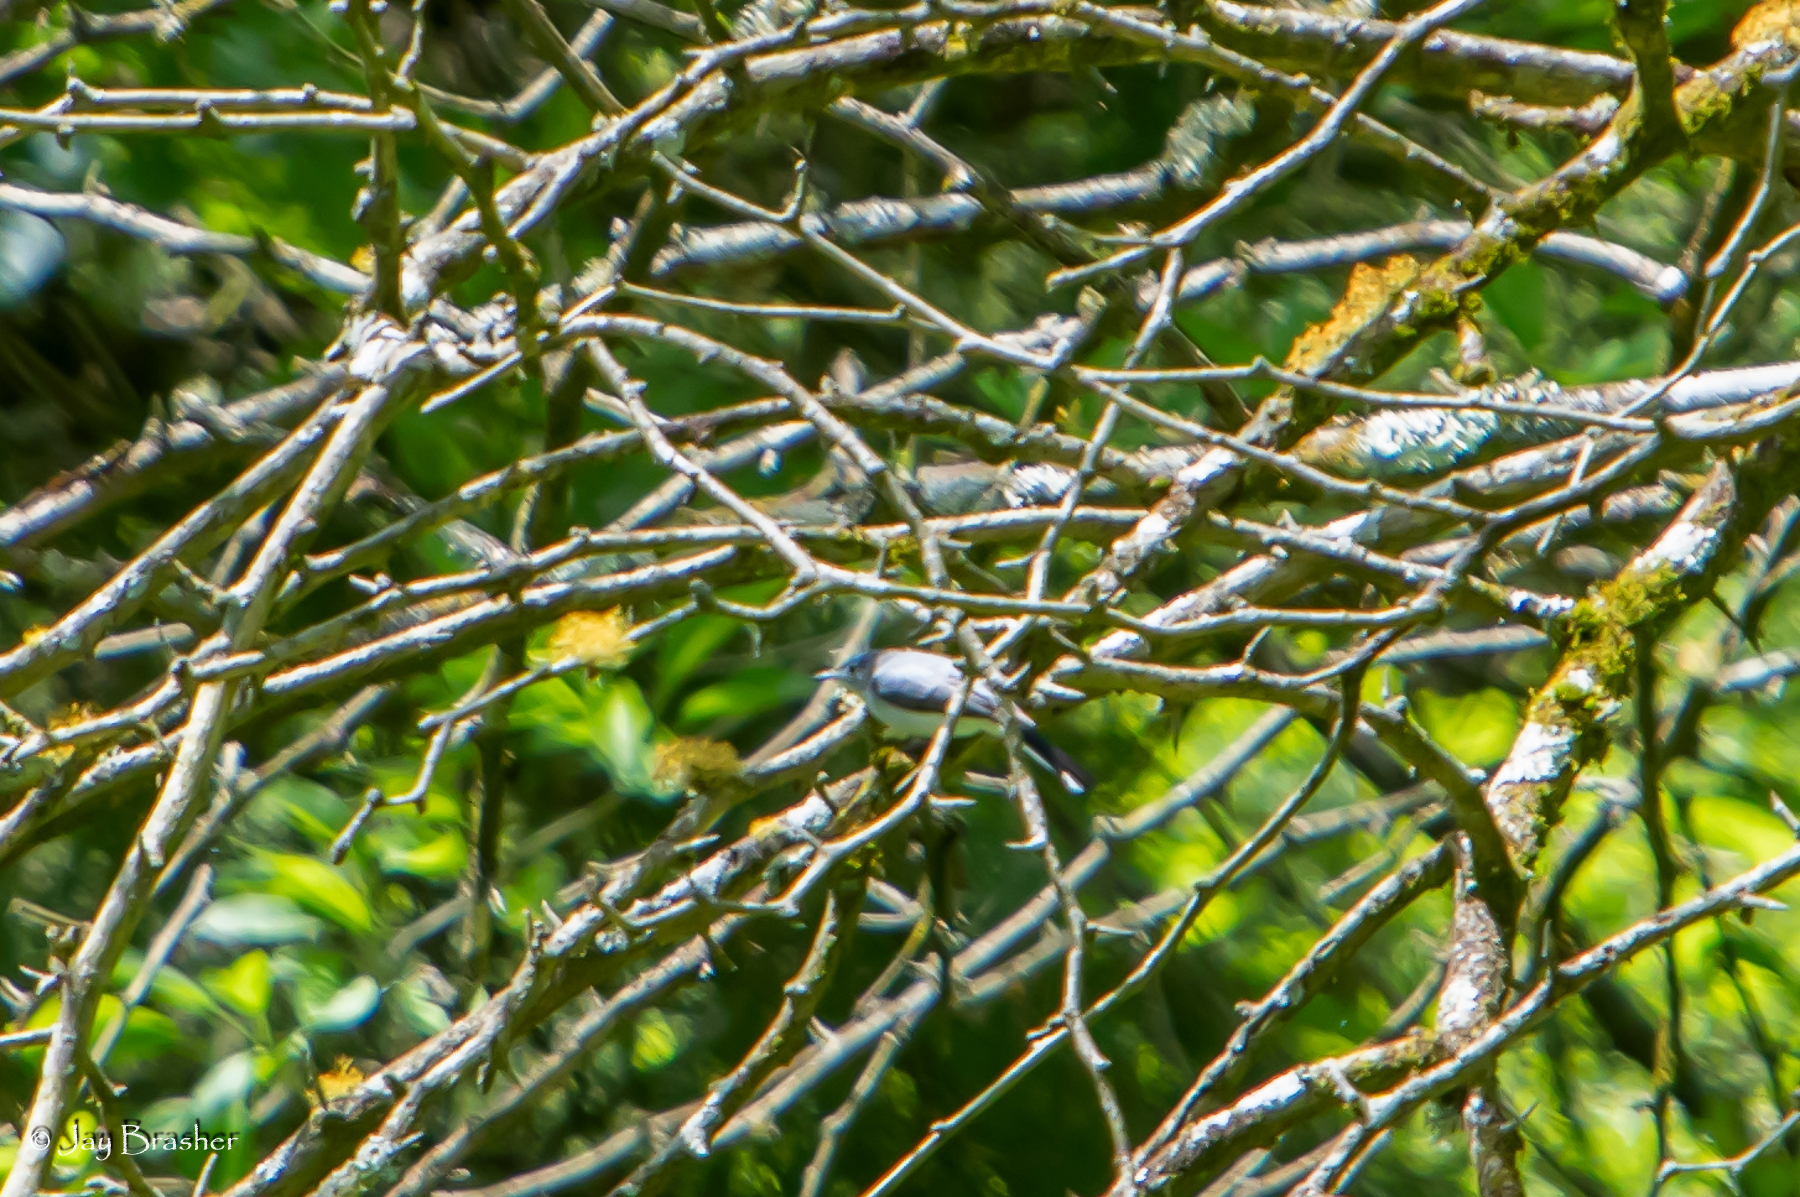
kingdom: Animalia
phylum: Chordata
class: Aves
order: Passeriformes
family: Polioptilidae
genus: Polioptila
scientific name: Polioptila caerulea
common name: Blue-gray gnatcatcher
